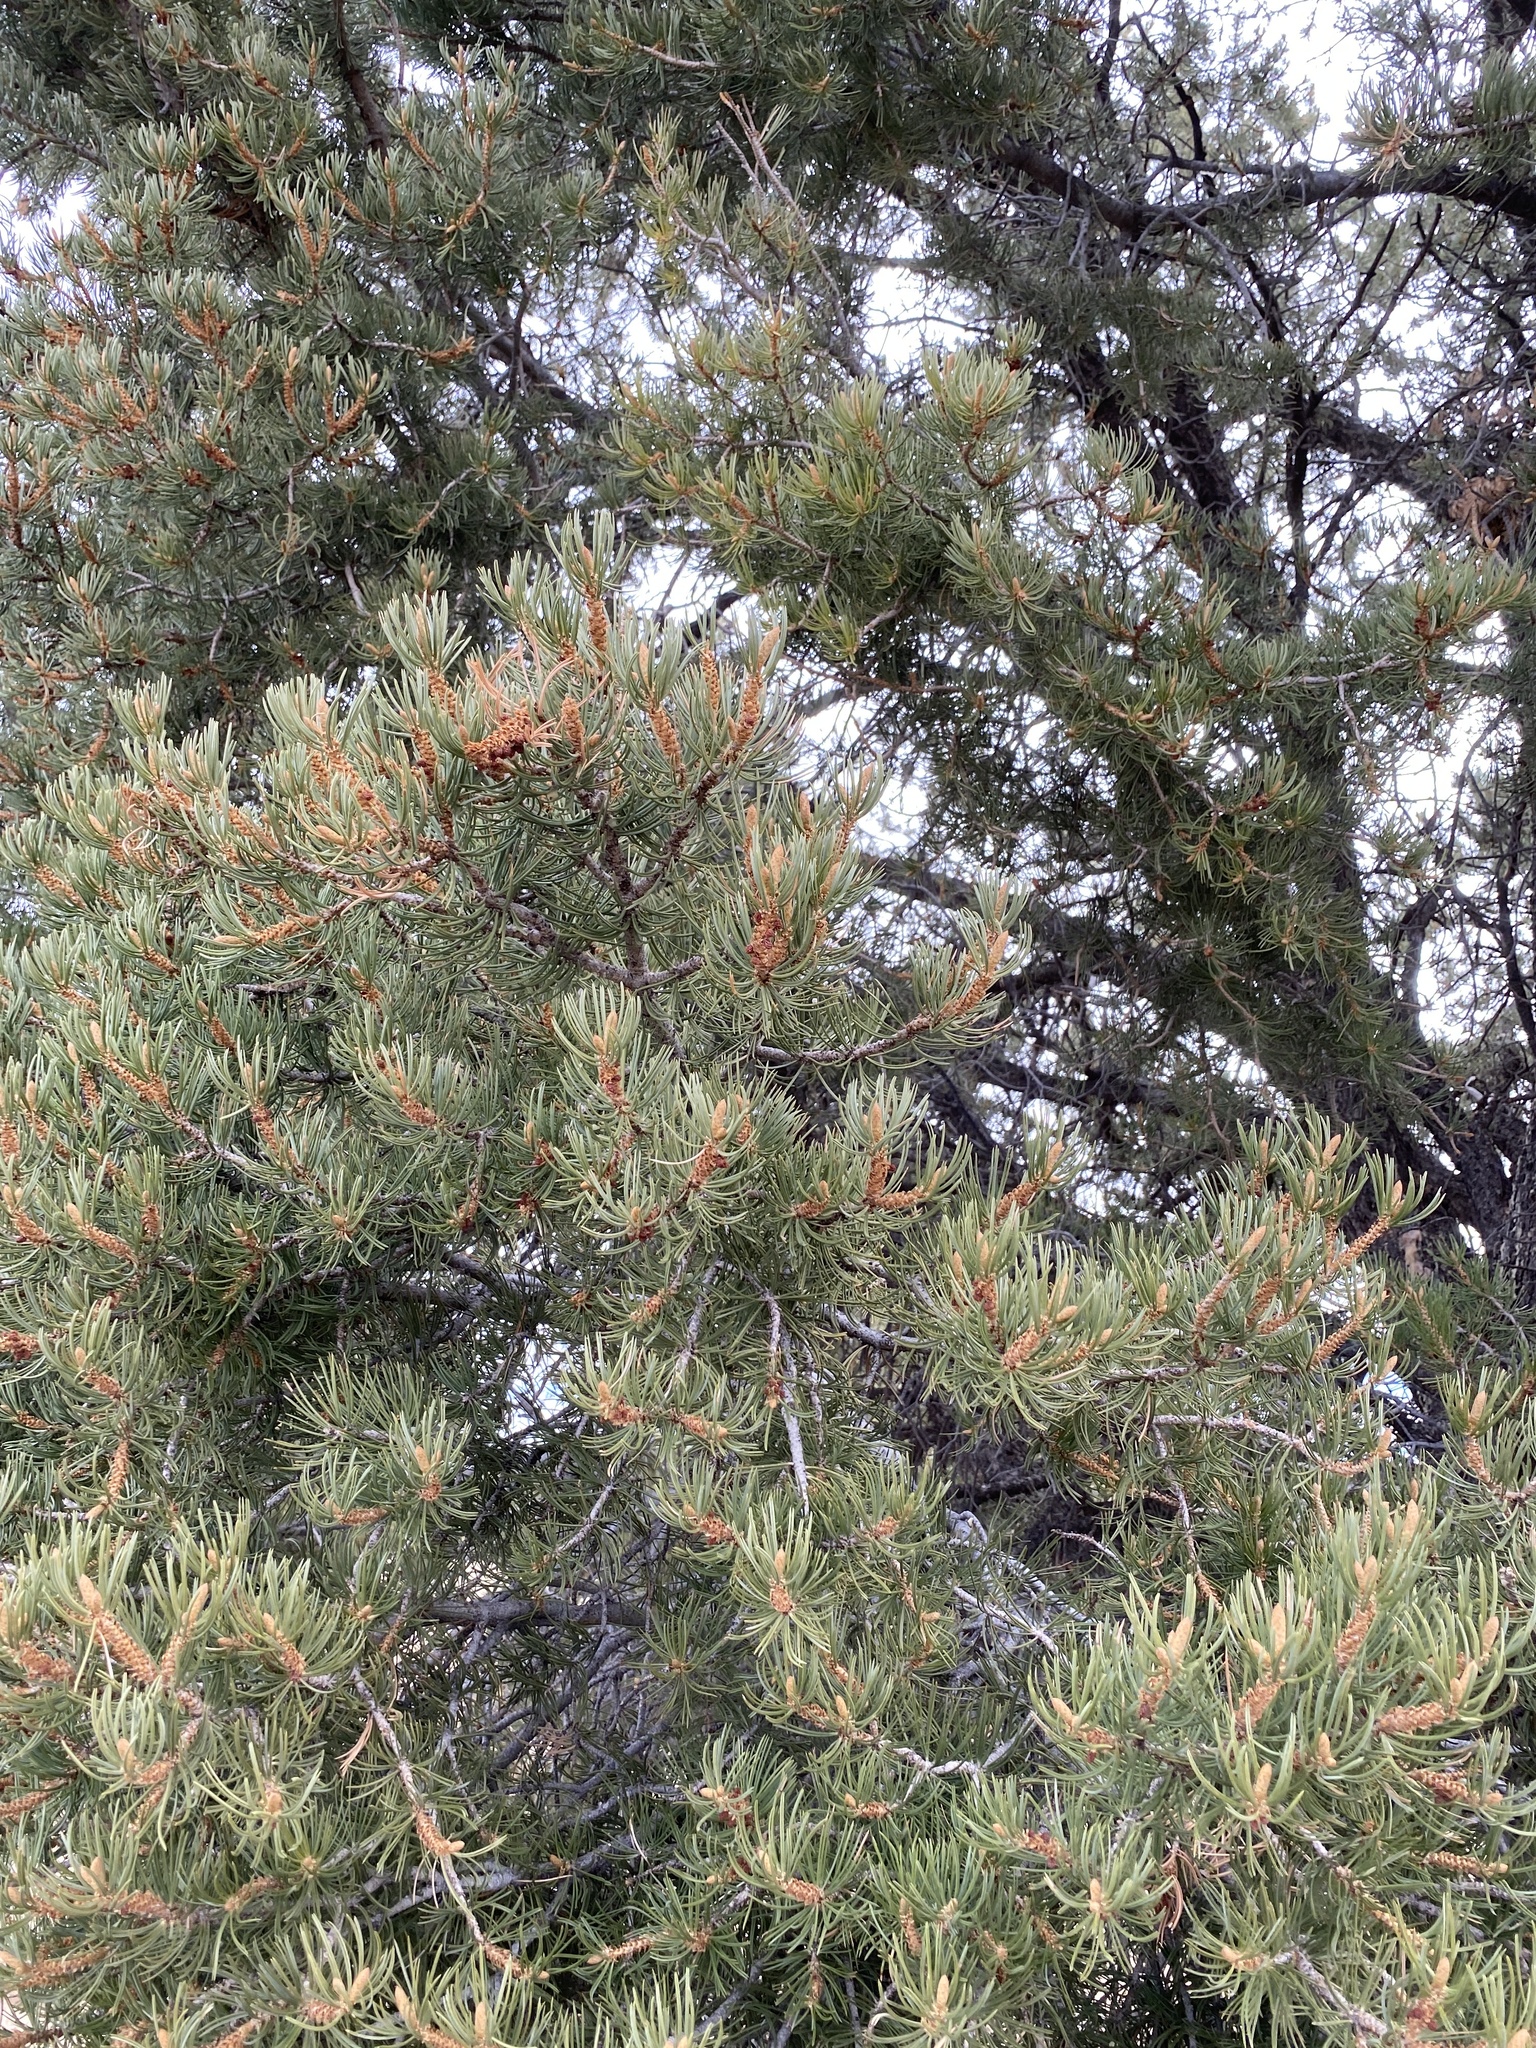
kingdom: Plantae
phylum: Tracheophyta
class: Pinopsida
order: Pinales
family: Pinaceae
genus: Pinus
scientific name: Pinus edulis
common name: Colorado pinyon
